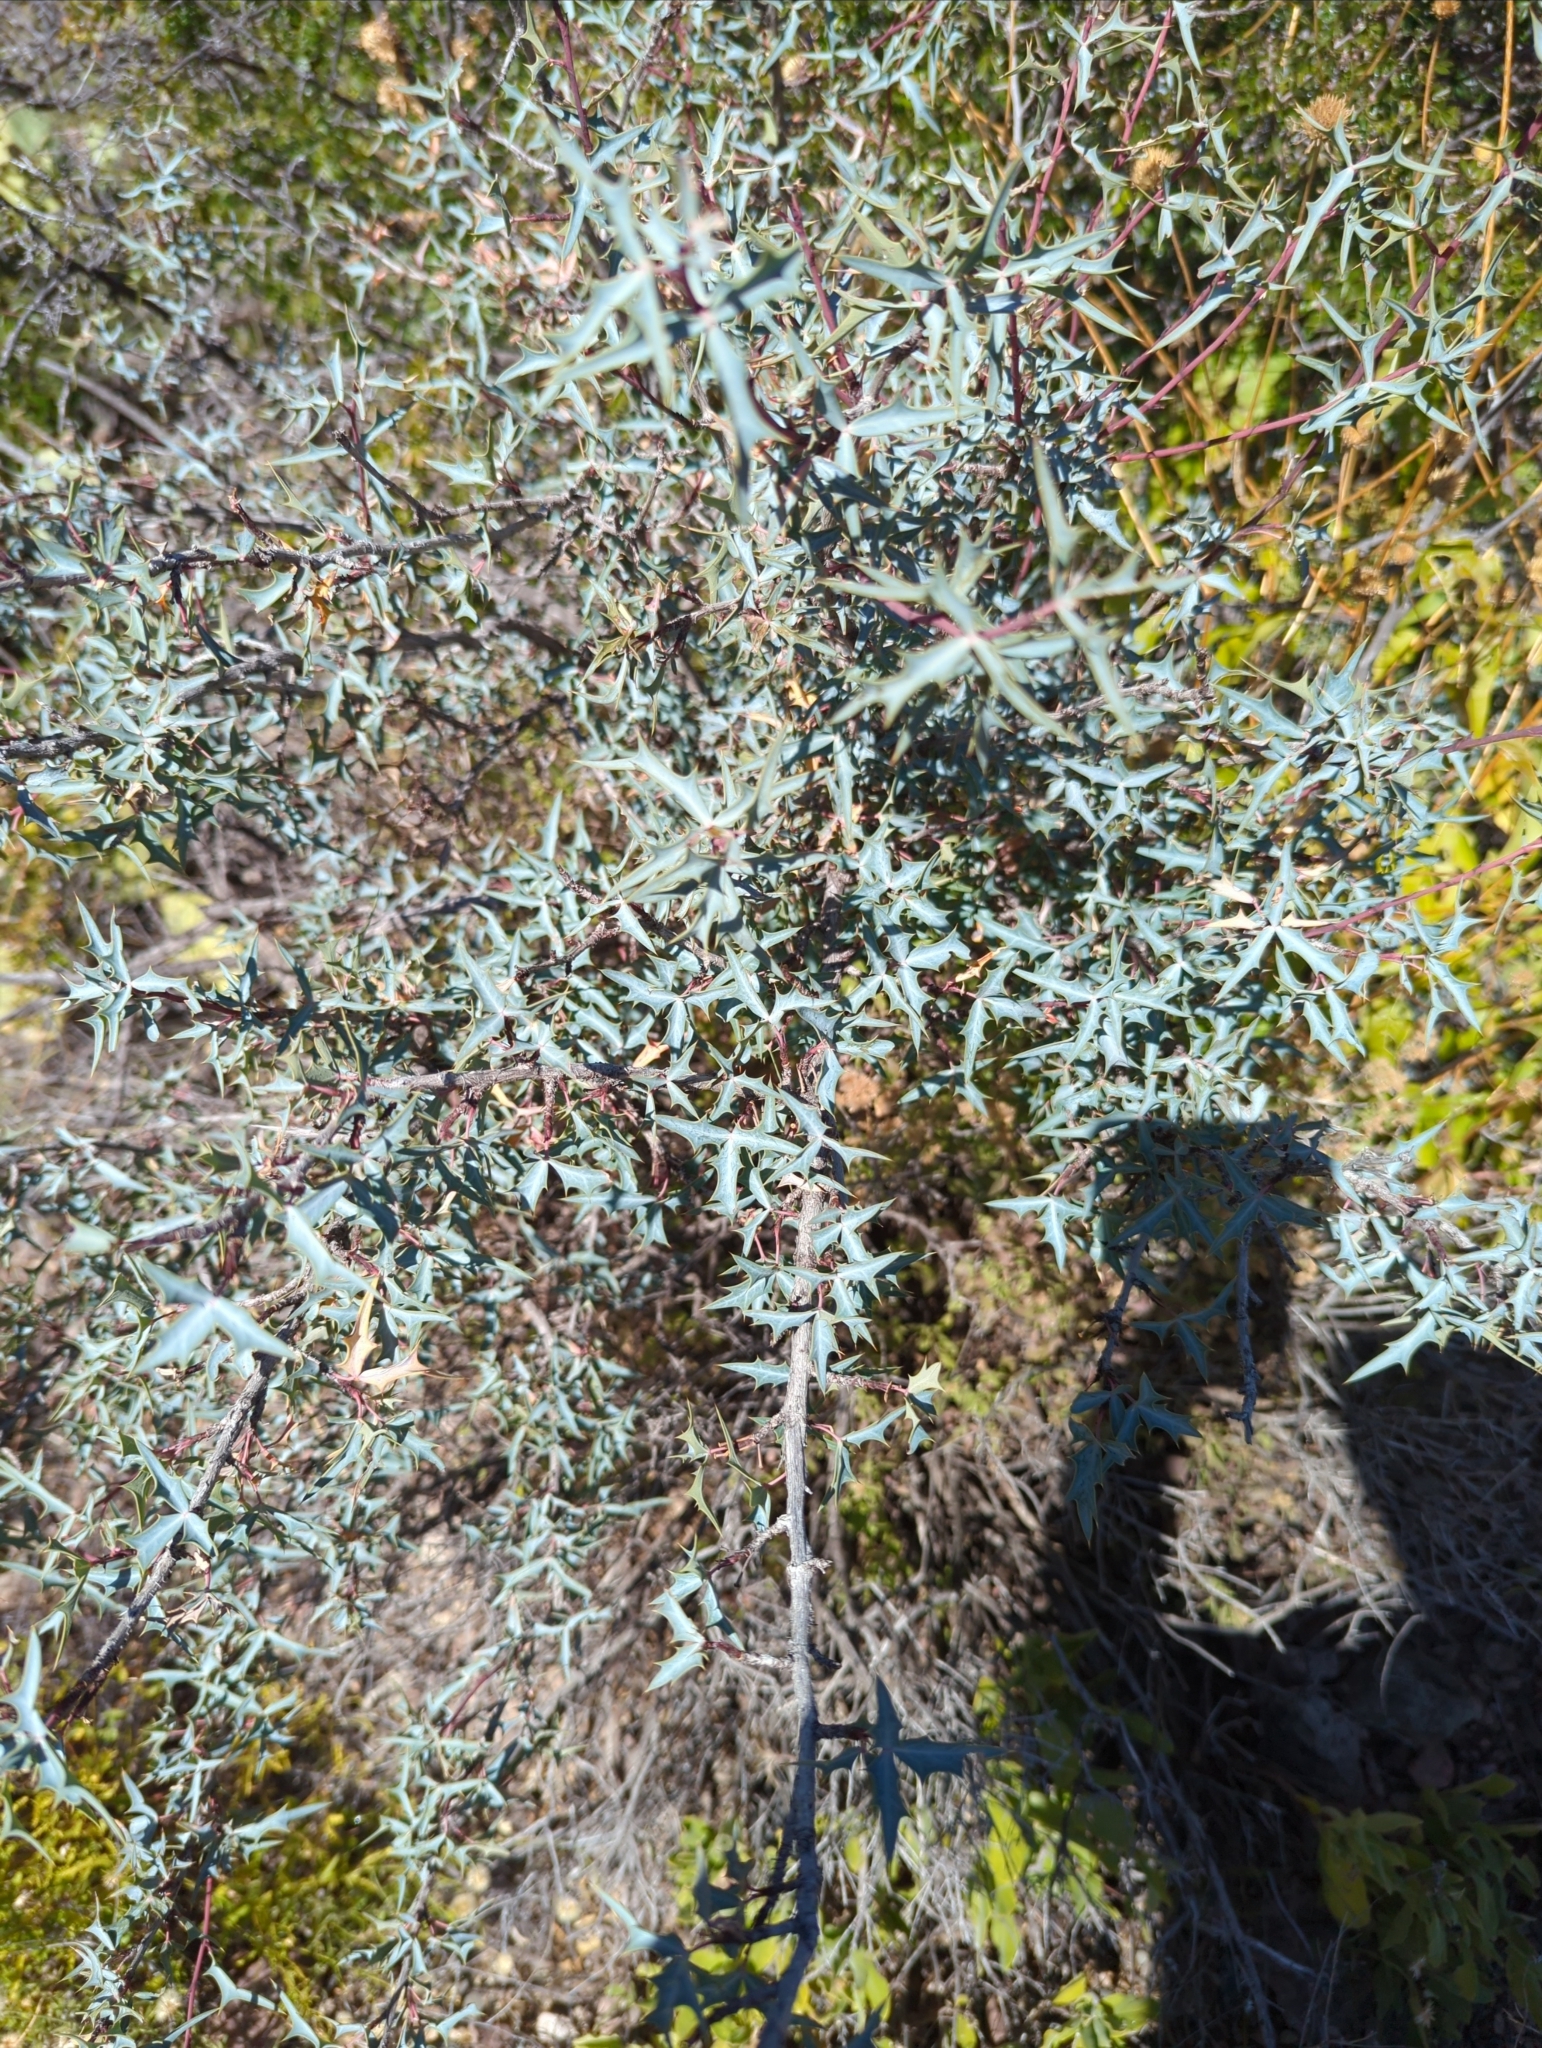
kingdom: Plantae
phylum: Tracheophyta
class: Magnoliopsida
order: Ranunculales
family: Berberidaceae
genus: Alloberberis
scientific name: Alloberberis trifoliolata
